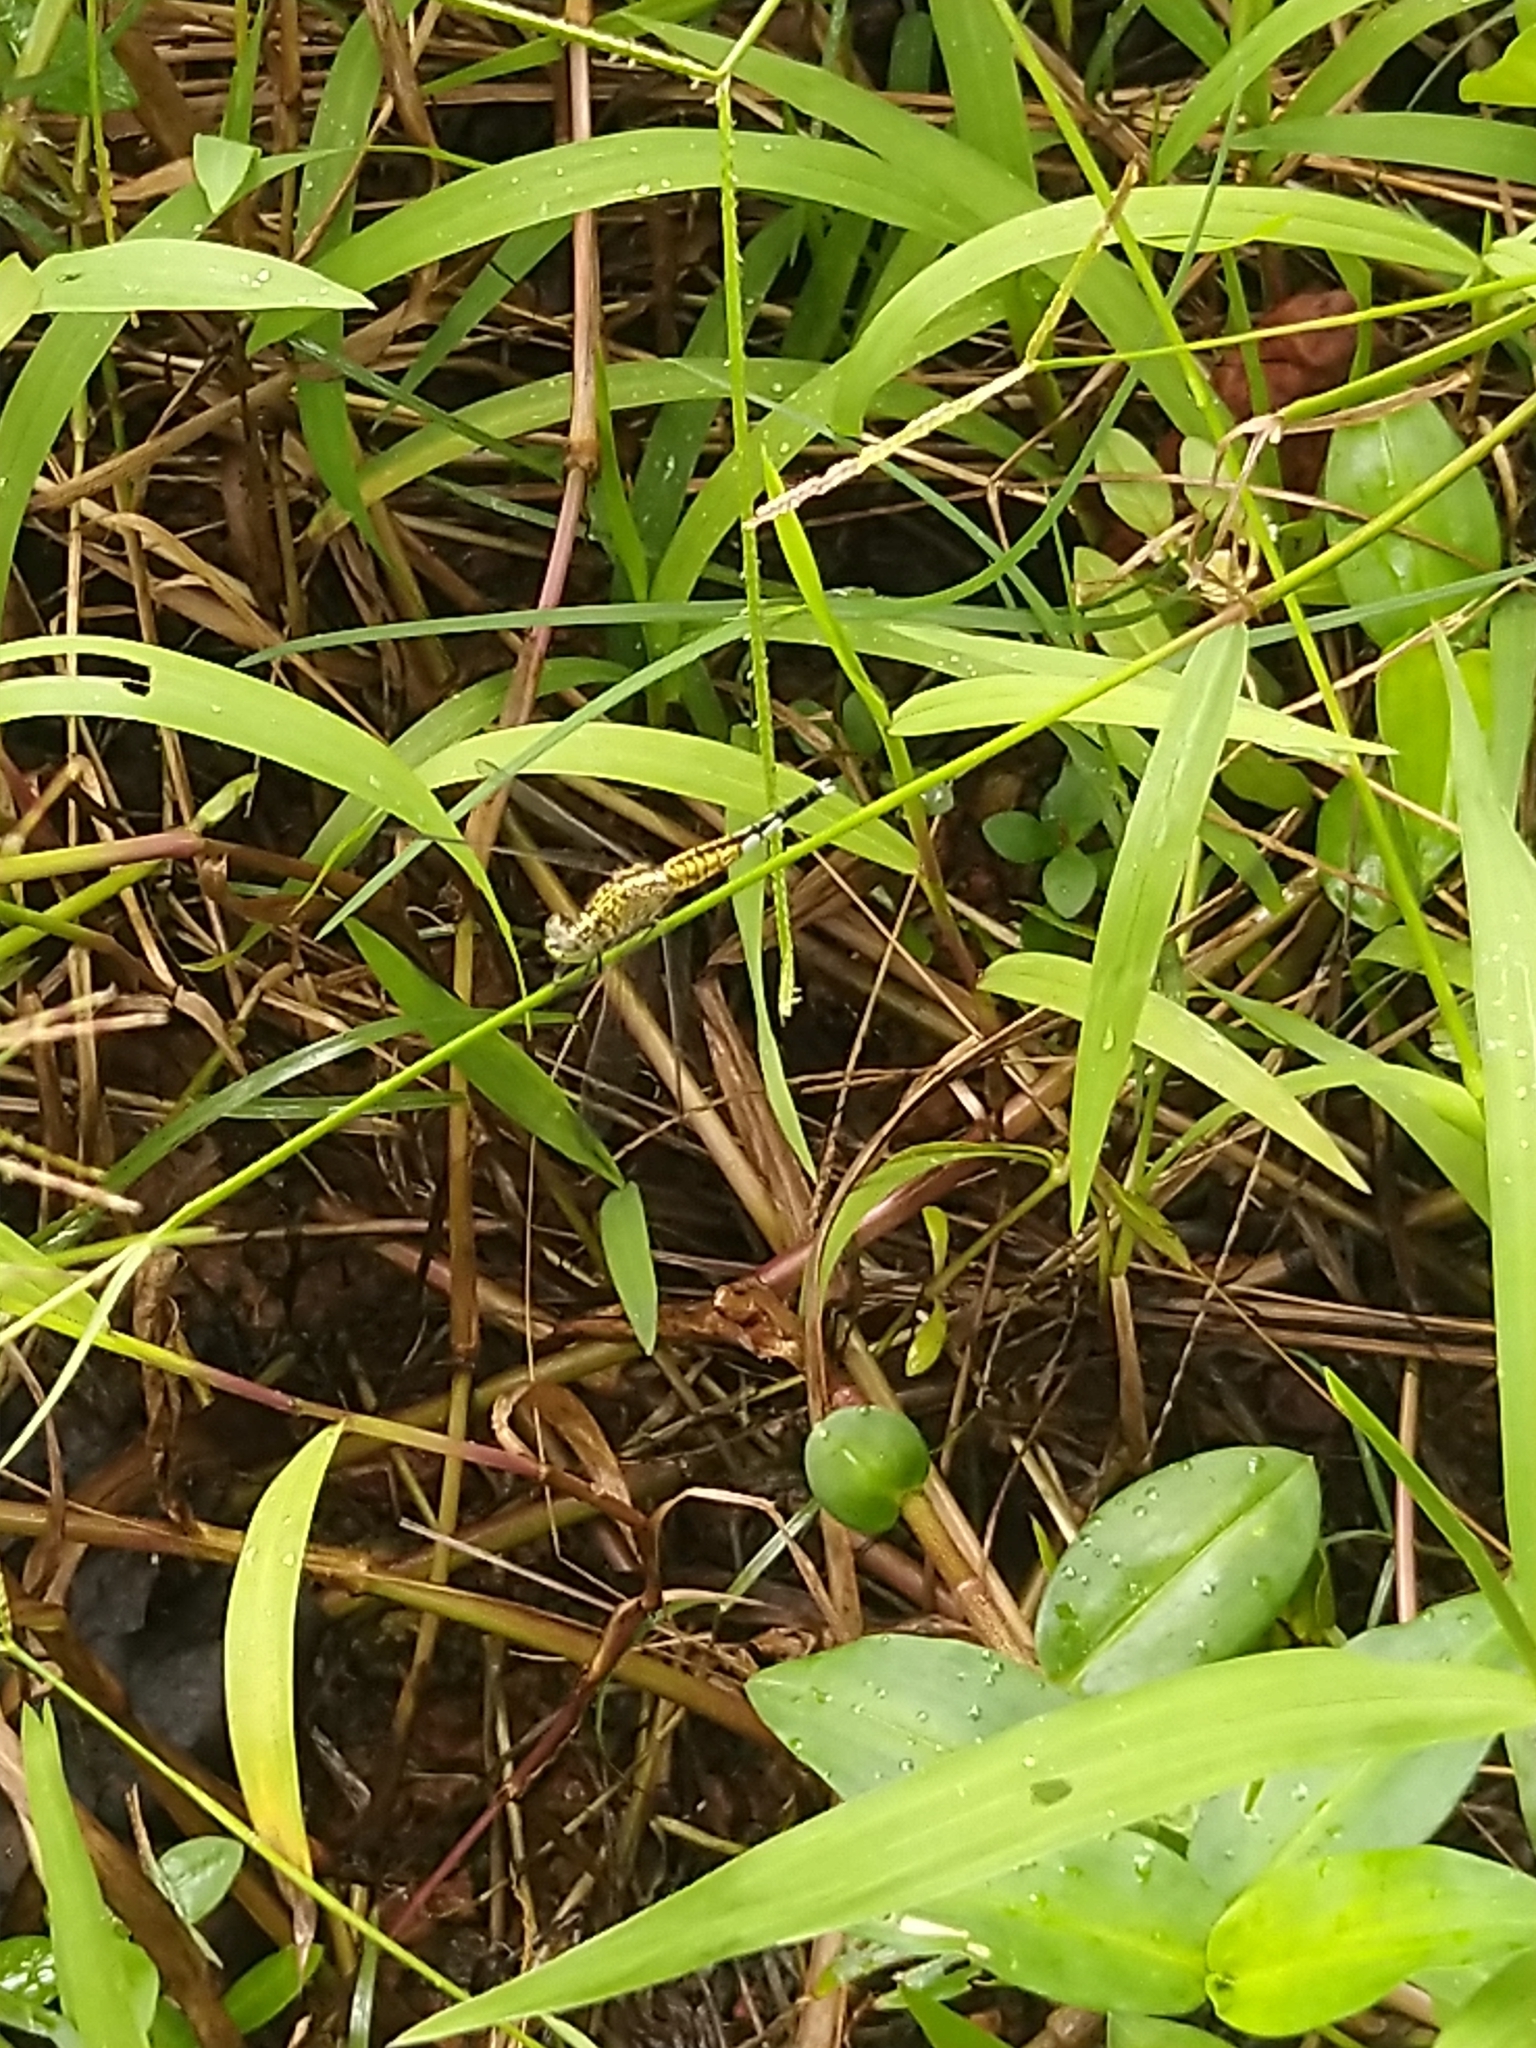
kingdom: Animalia
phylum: Arthropoda
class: Insecta
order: Odonata
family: Libellulidae
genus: Acisoma
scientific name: Acisoma panorpoides
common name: Asian pintail
